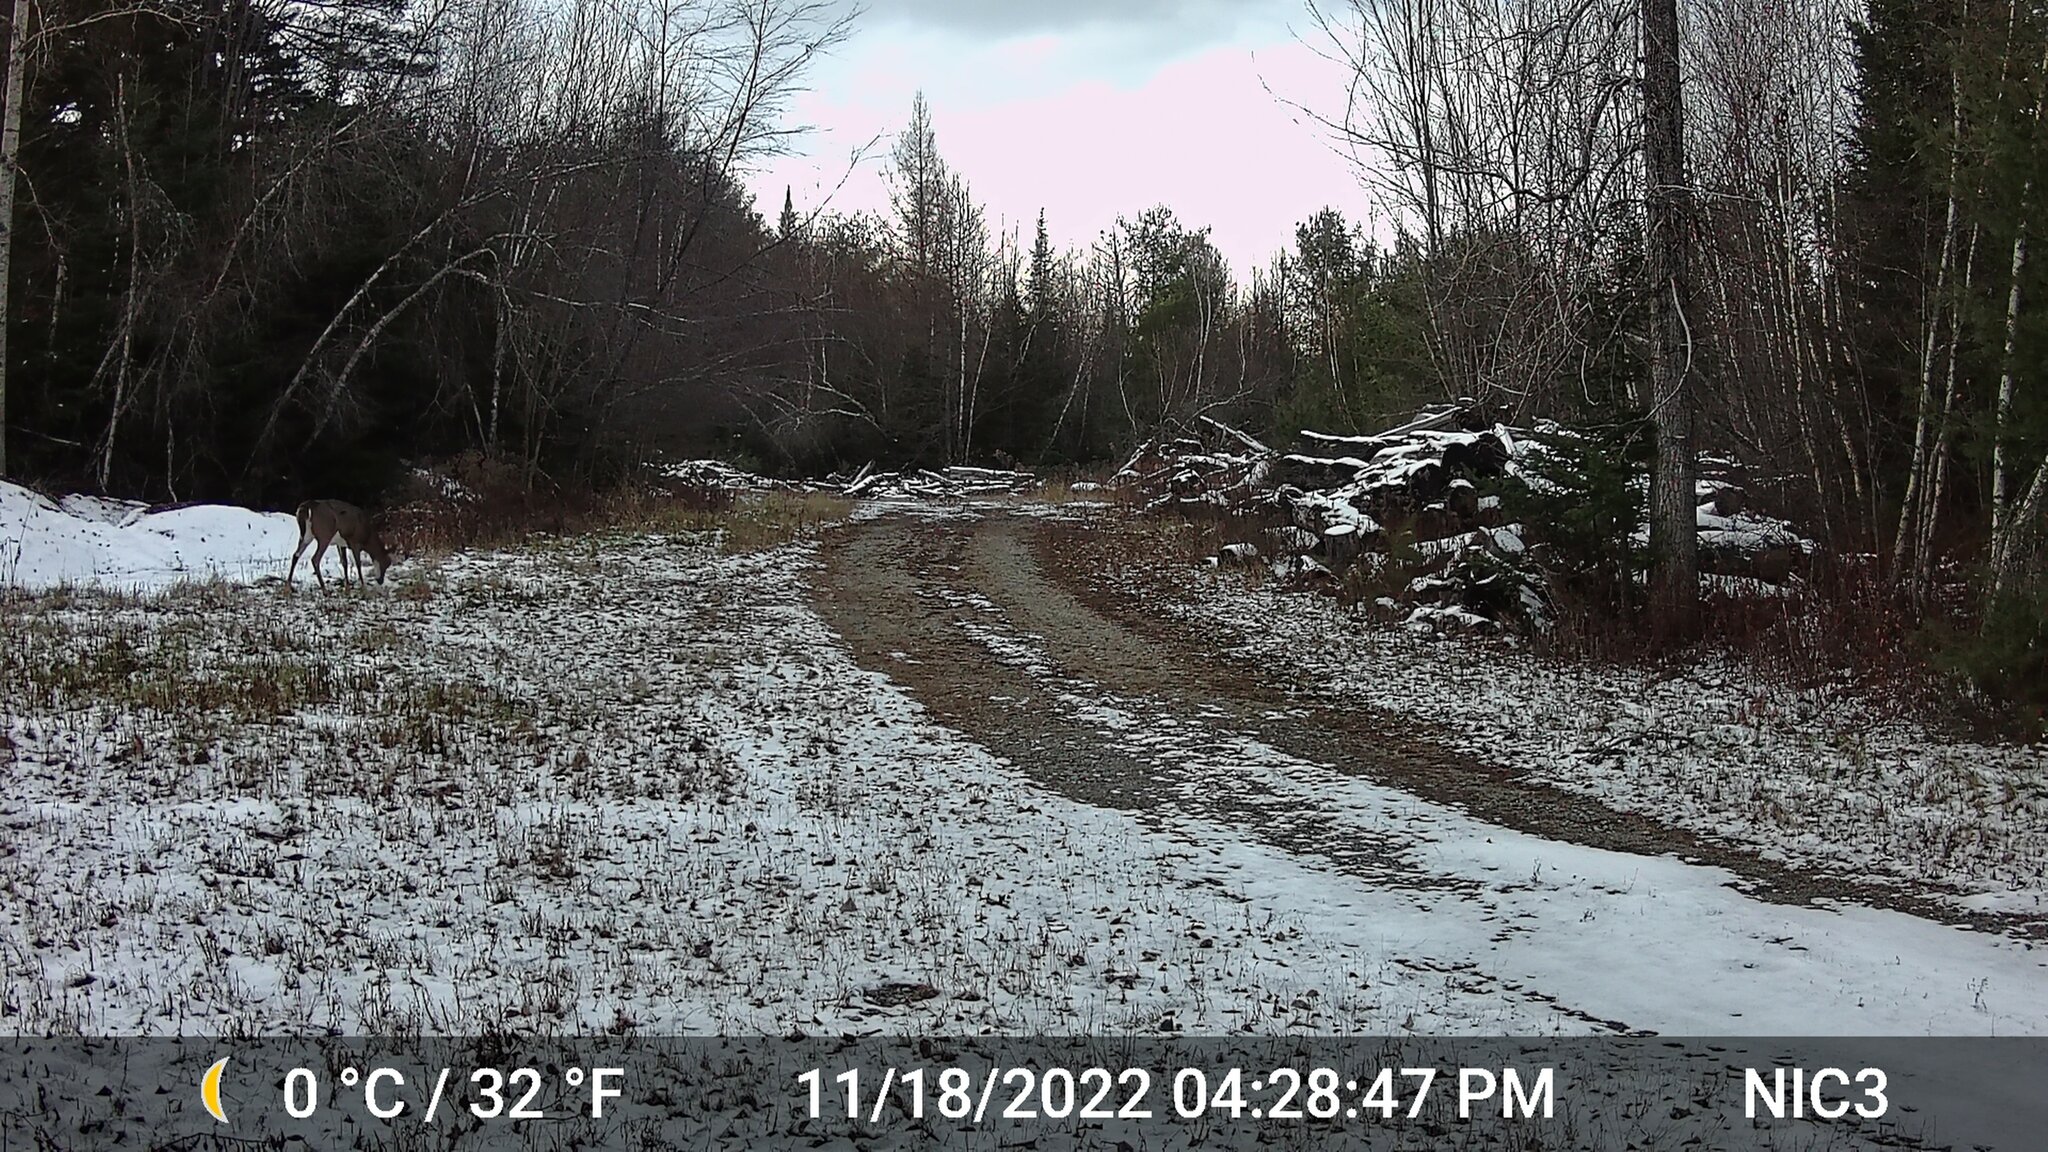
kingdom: Animalia
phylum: Chordata
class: Mammalia
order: Artiodactyla
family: Cervidae
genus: Odocoileus
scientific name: Odocoileus virginianus
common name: White-tailed deer
